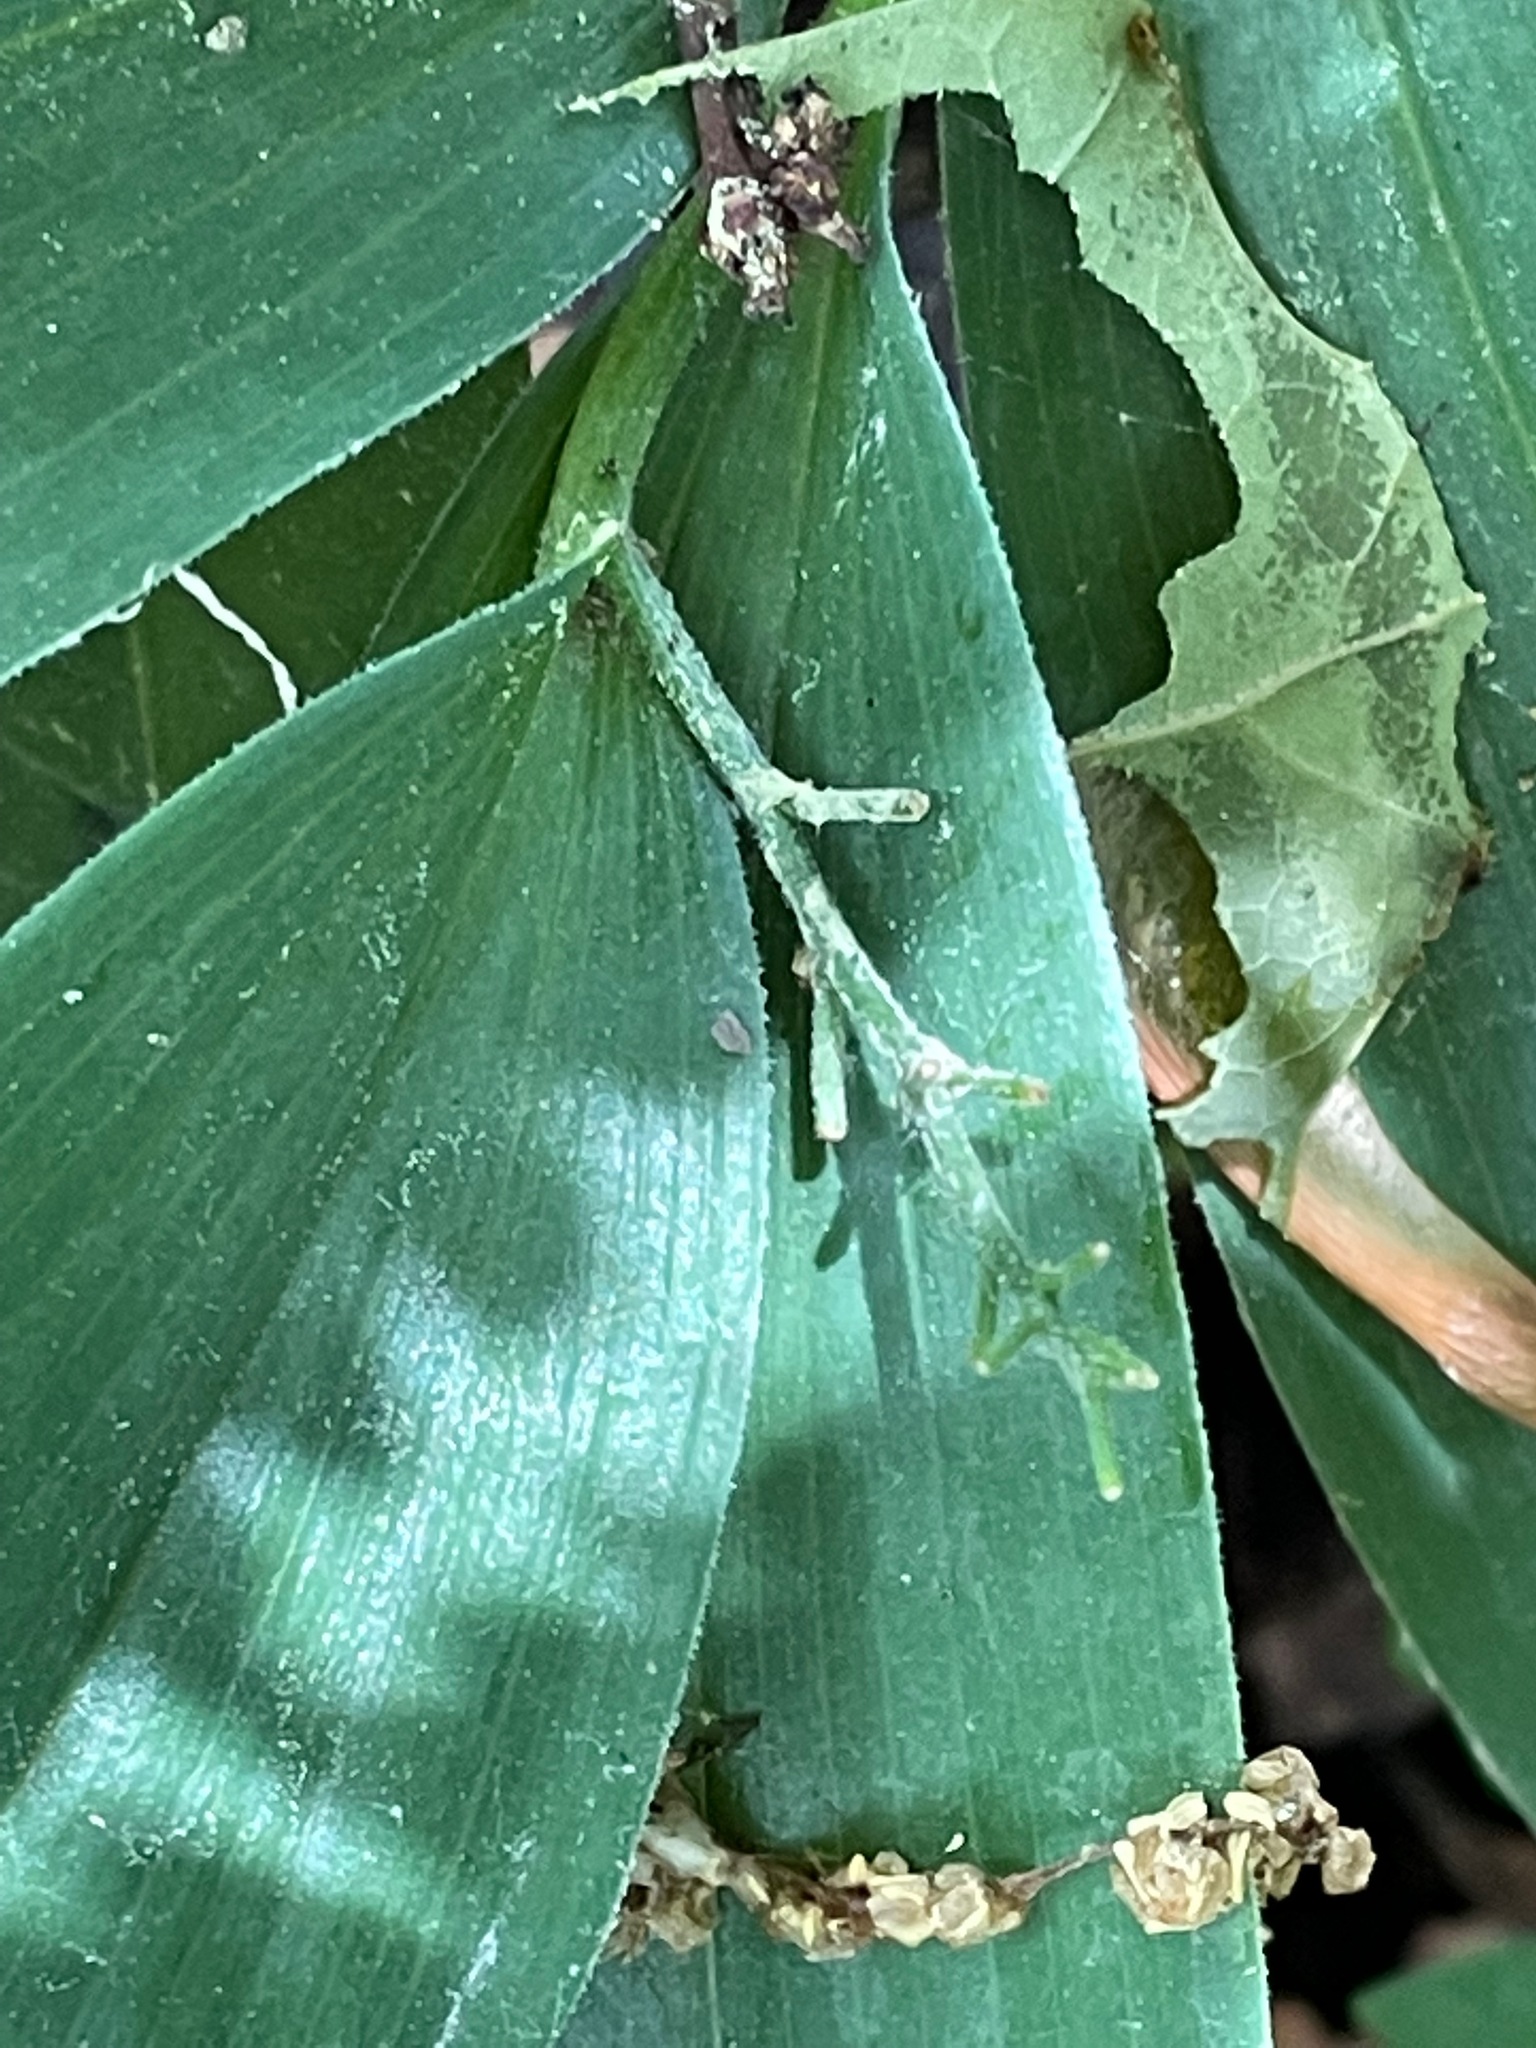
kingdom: Plantae
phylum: Tracheophyta
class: Liliopsida
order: Asparagales
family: Asparagaceae
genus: Maianthemum
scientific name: Maianthemum stellatum
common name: Little false solomon's seal
